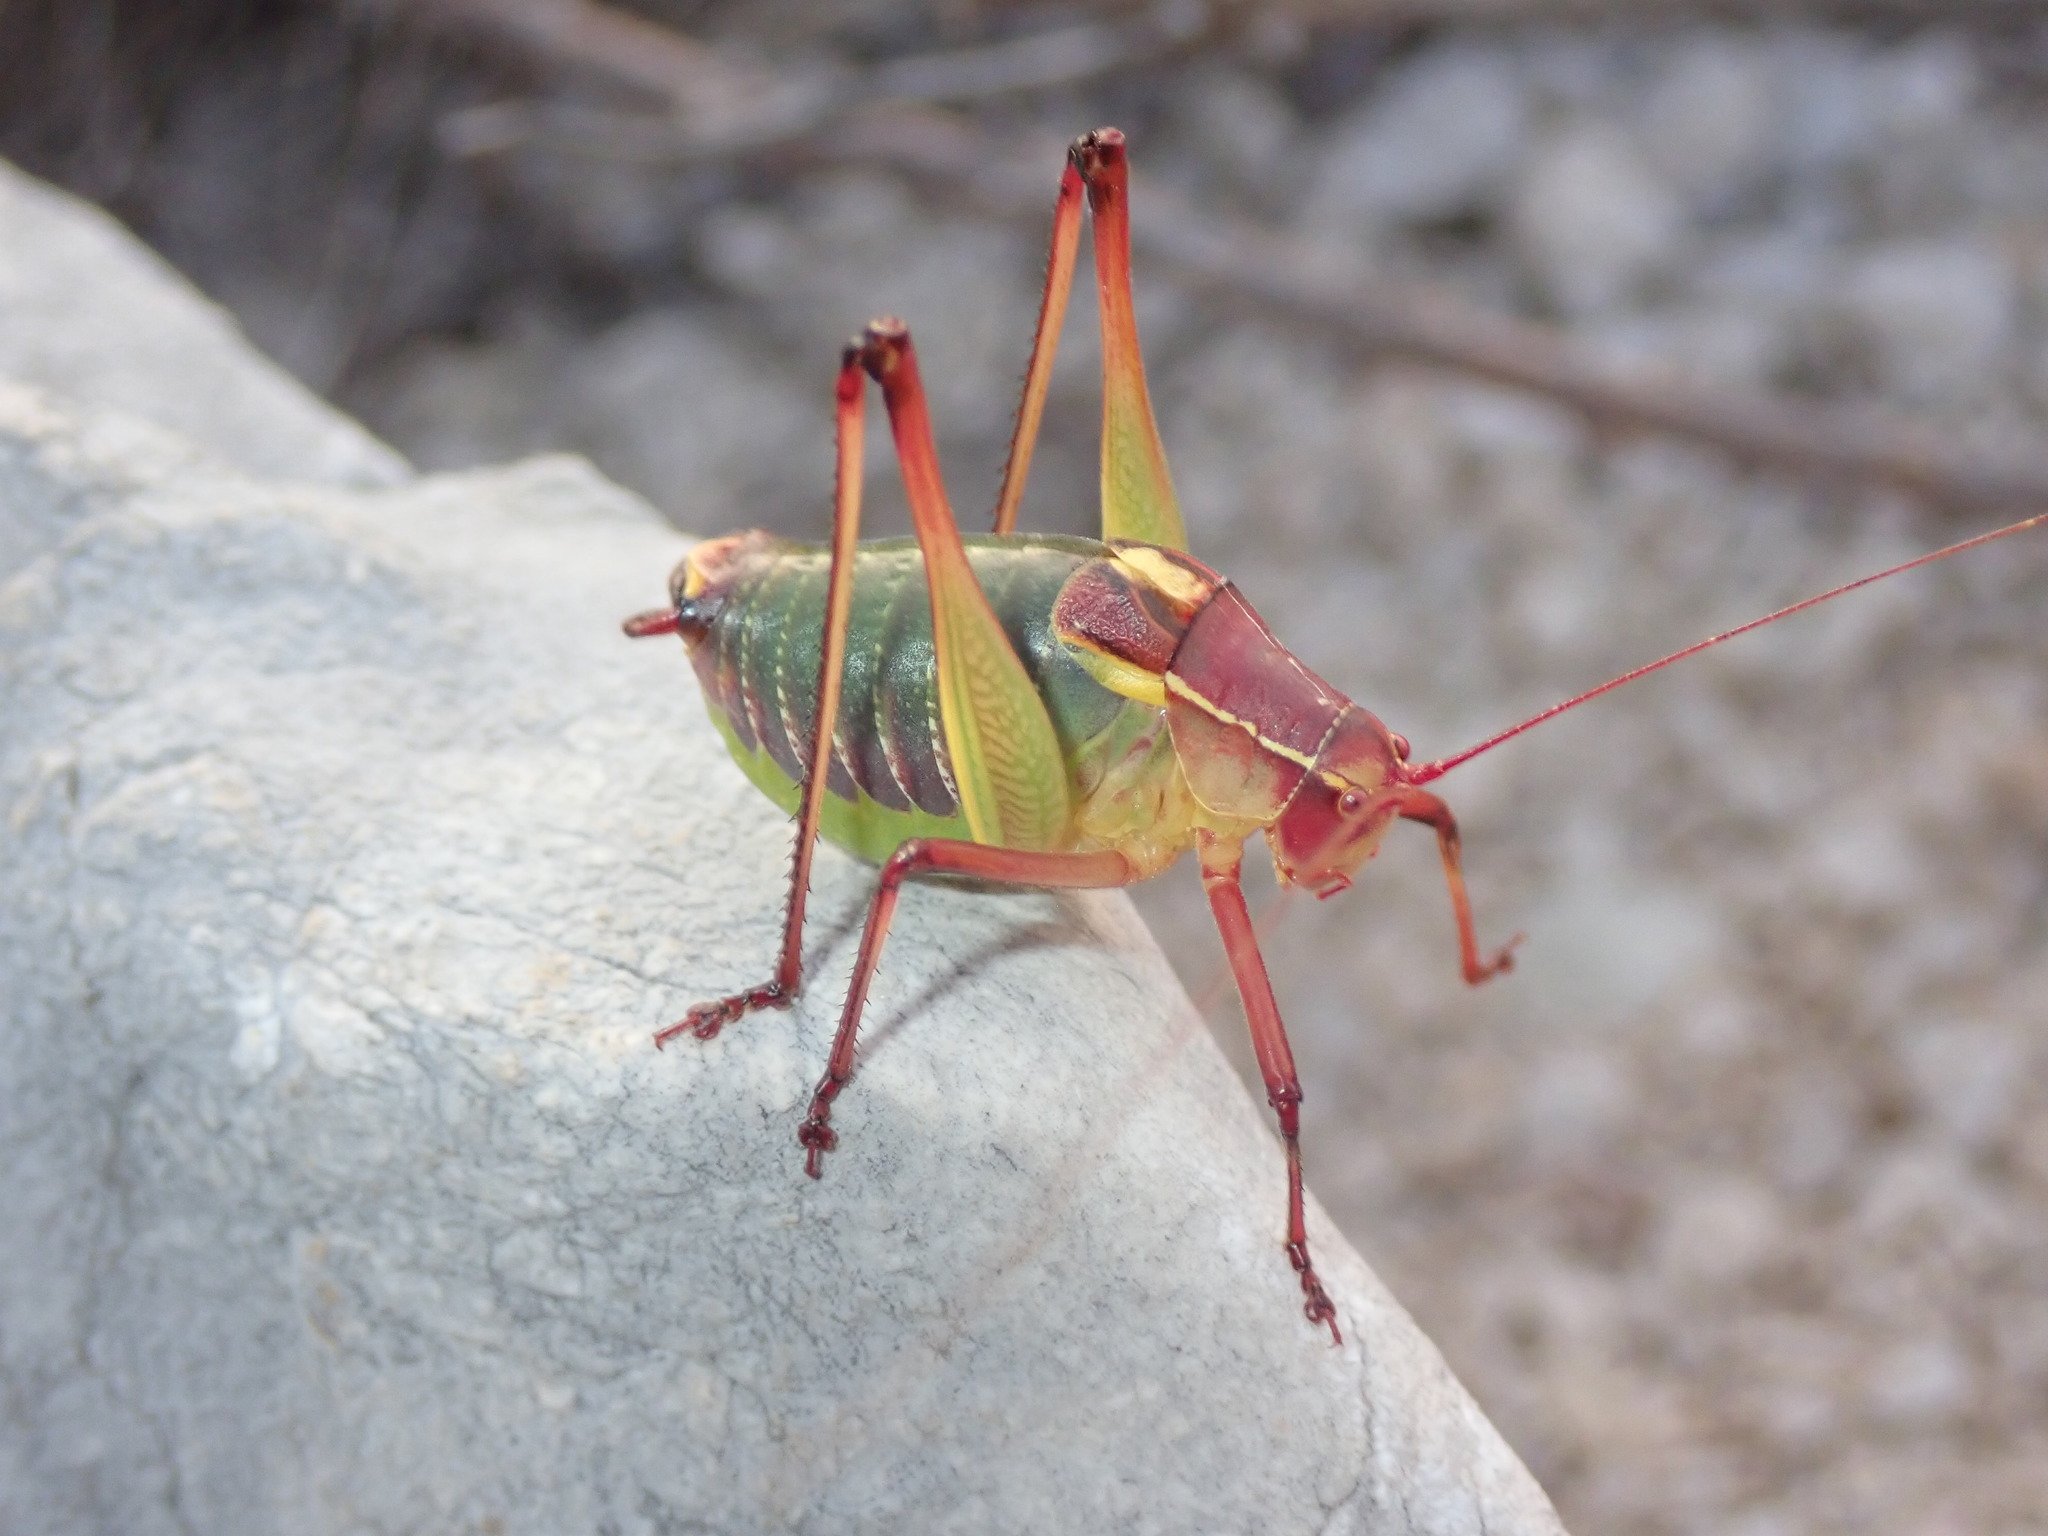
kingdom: Animalia
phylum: Arthropoda
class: Insecta
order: Orthoptera
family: Tettigoniidae
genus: Barbitistes
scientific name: Barbitistes yersini
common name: Balkan saw bush-cricket
